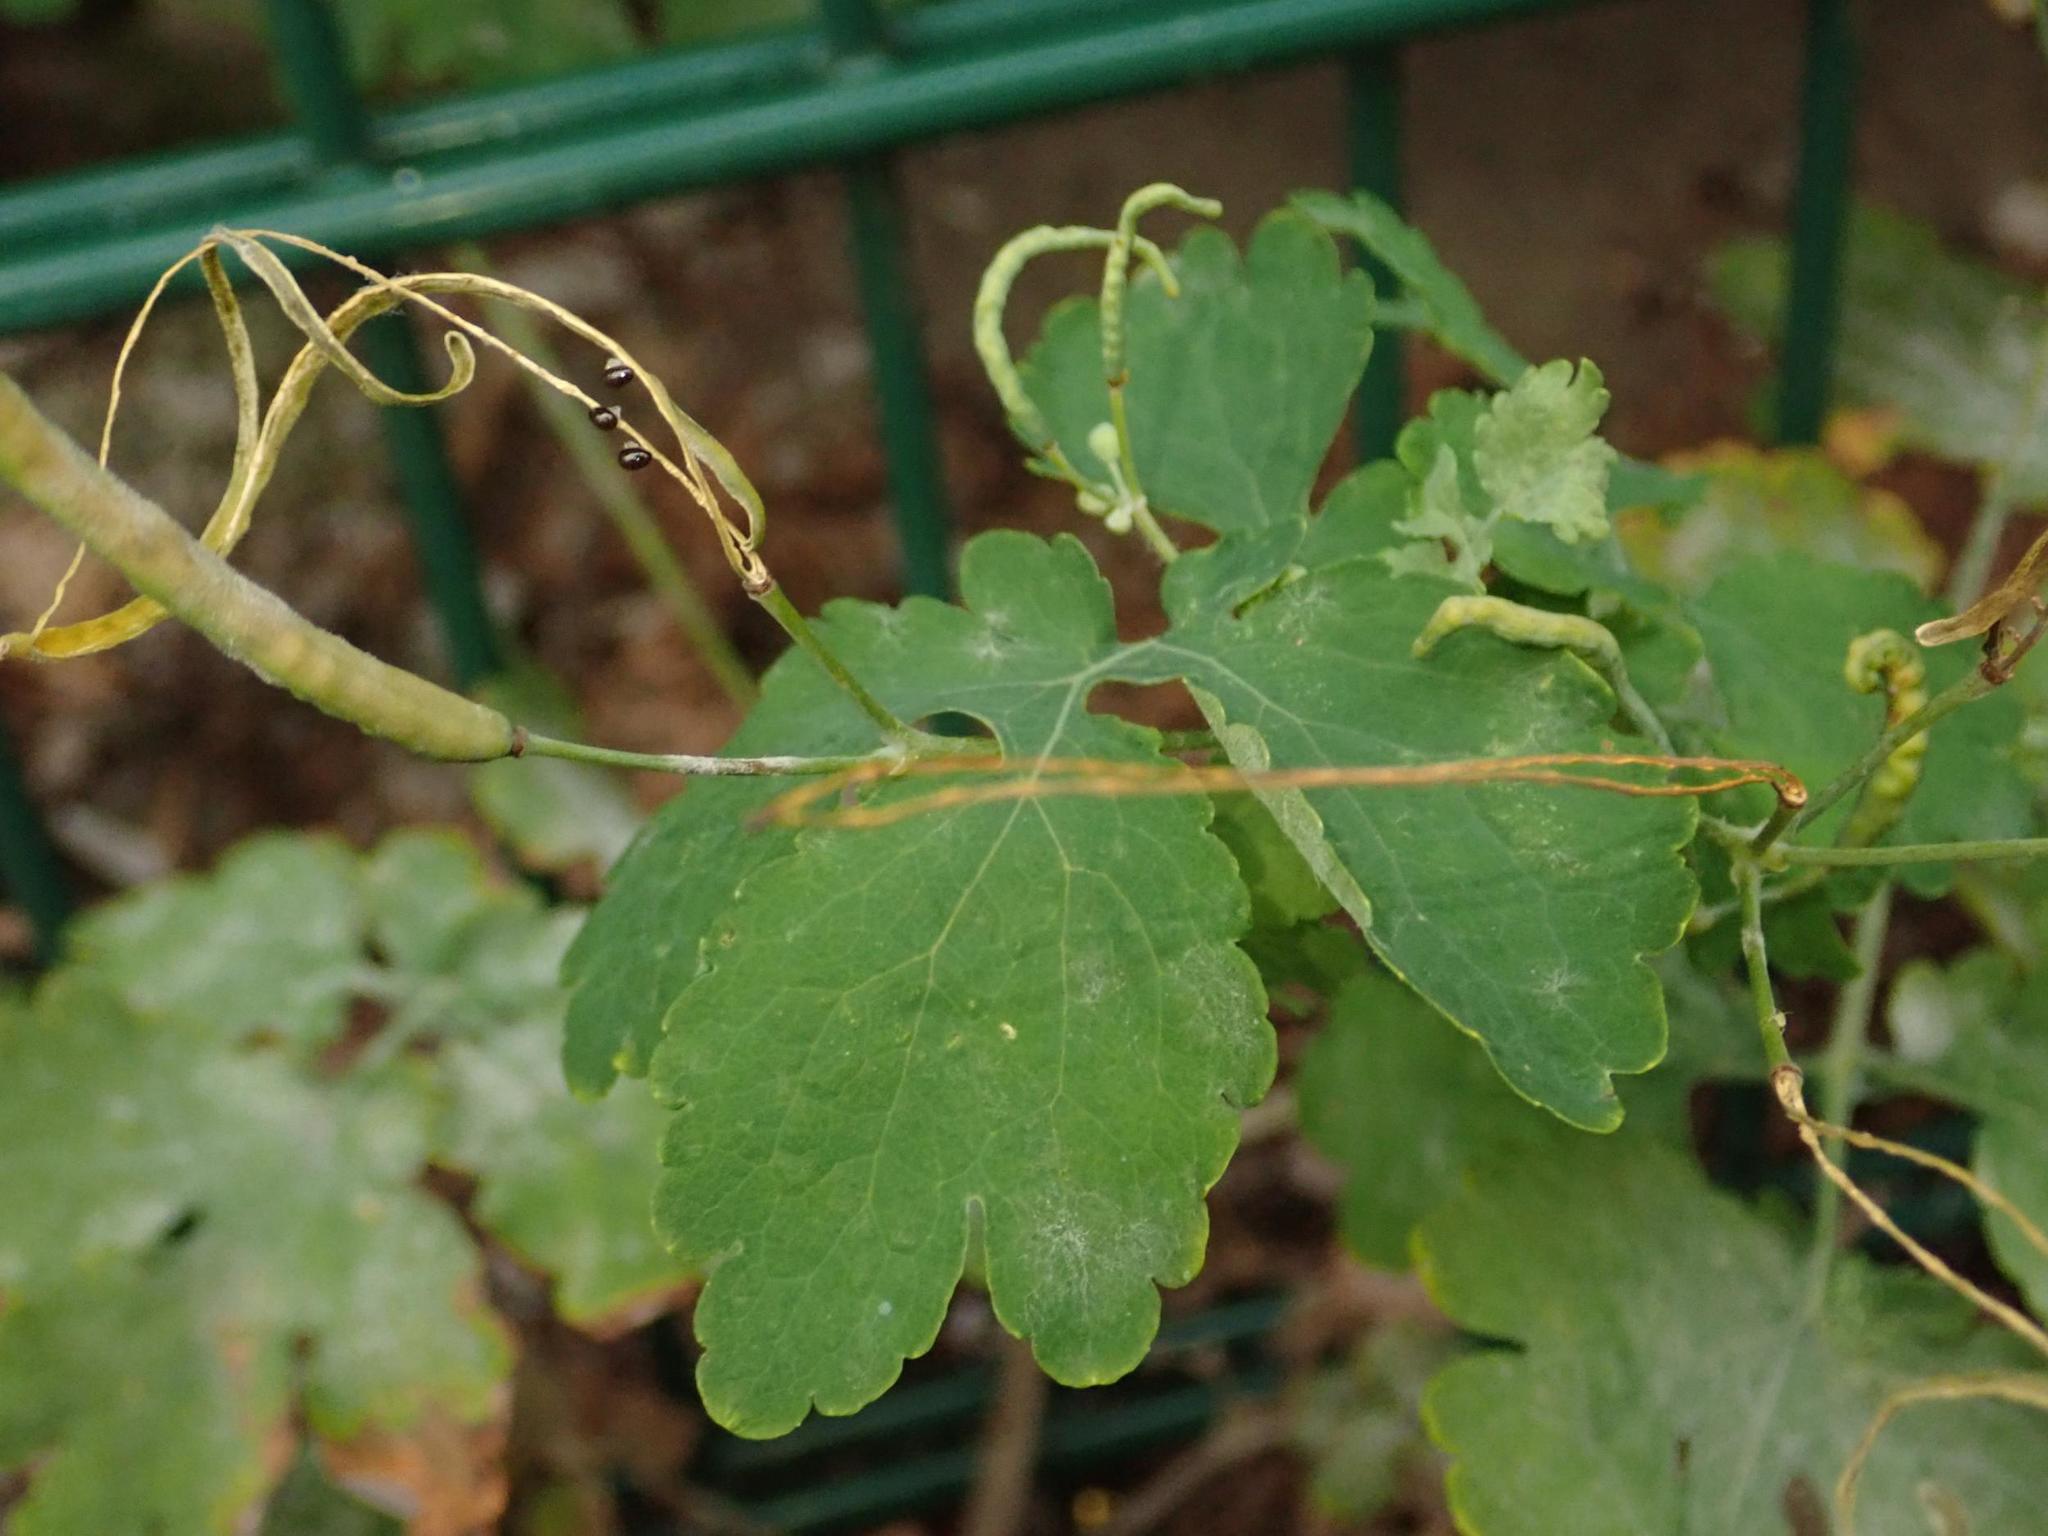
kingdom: Plantae
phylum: Tracheophyta
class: Magnoliopsida
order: Ranunculales
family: Papaveraceae
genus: Chelidonium
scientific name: Chelidonium majus
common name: Greater celandine
